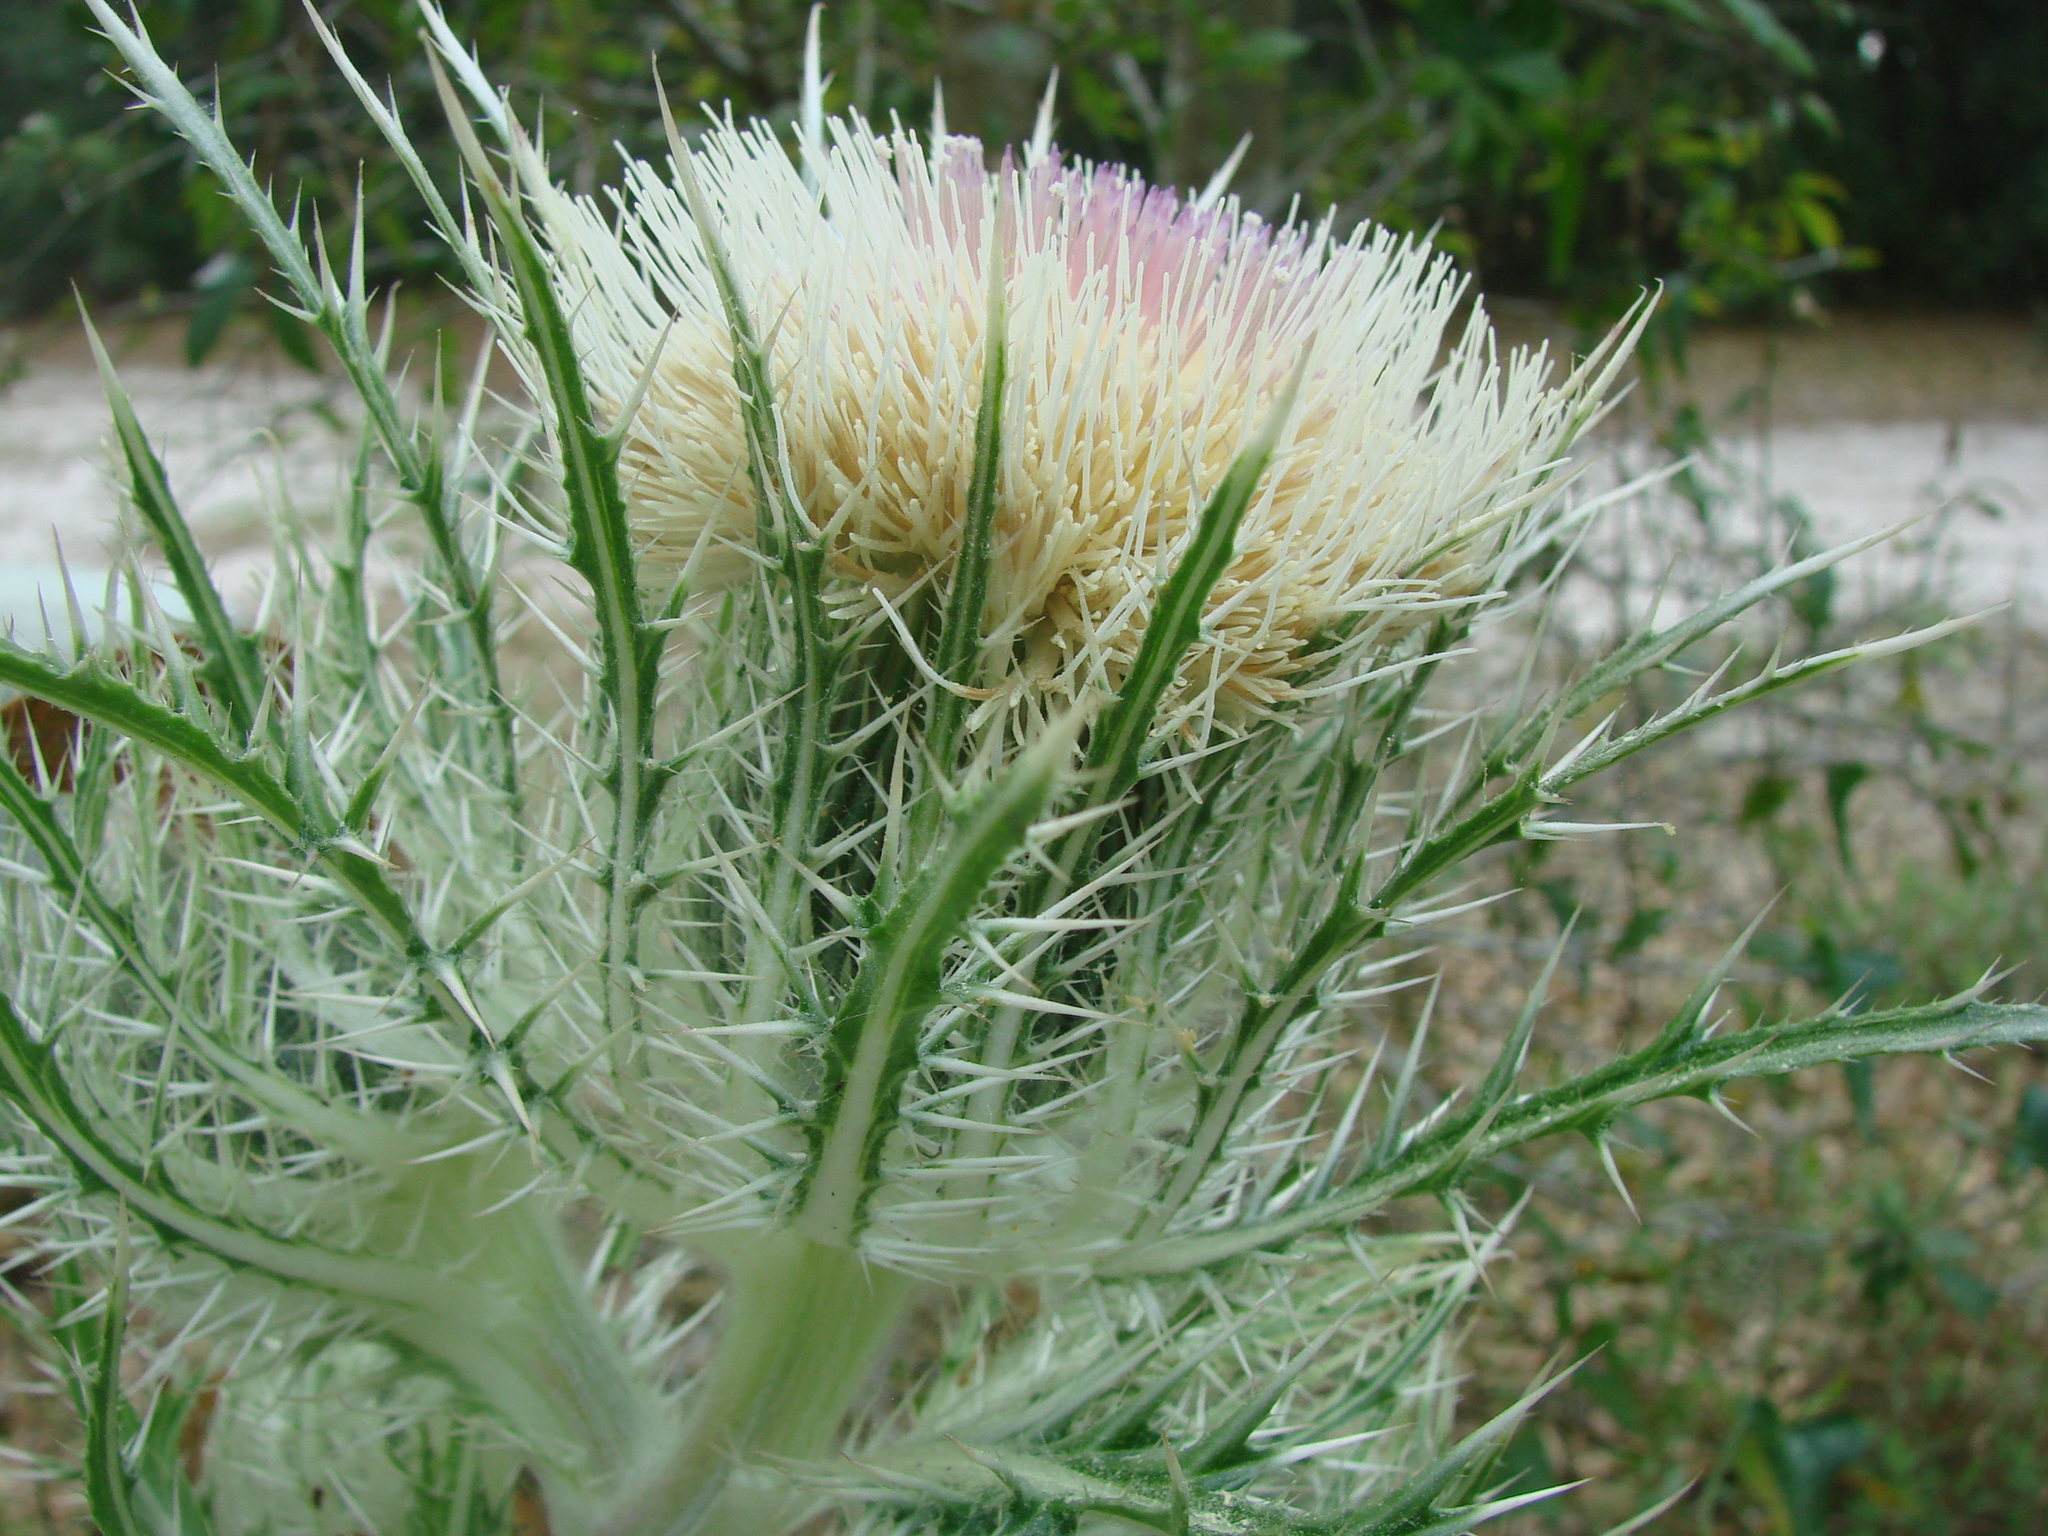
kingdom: Plantae
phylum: Tracheophyta
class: Magnoliopsida
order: Asterales
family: Asteraceae
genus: Cirsium
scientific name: Cirsium horridulum
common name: Bristly thistle
